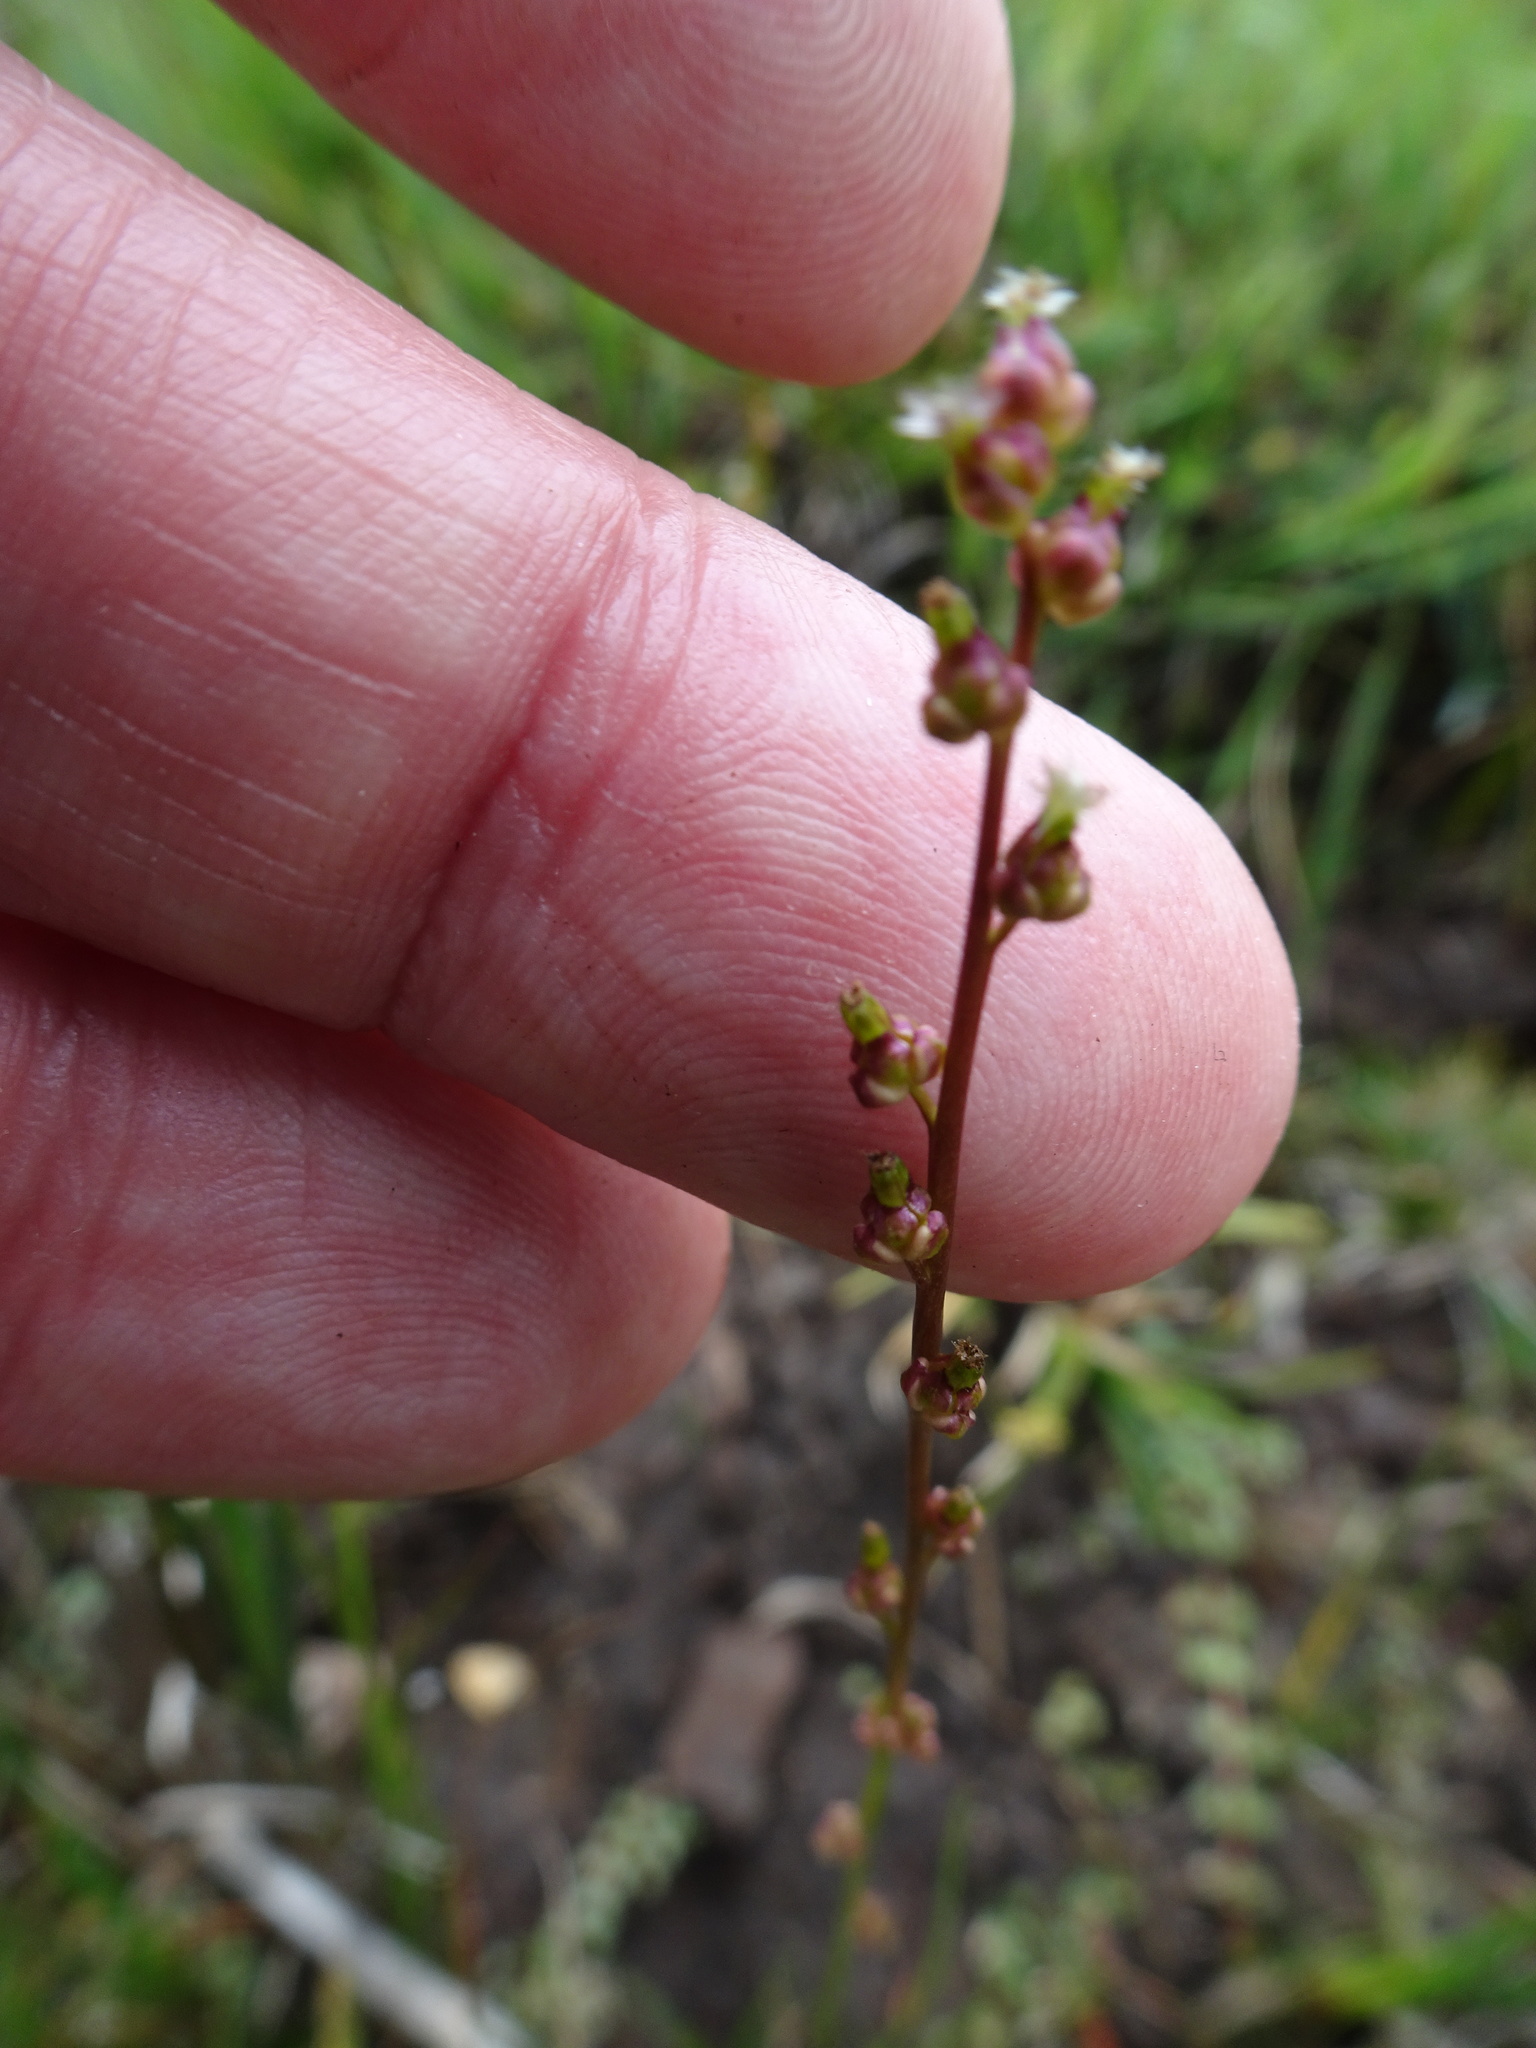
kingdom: Plantae
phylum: Tracheophyta
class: Liliopsida
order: Alismatales
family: Juncaginaceae
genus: Triglochin
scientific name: Triglochin palustris
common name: Marsh arrowgrass
